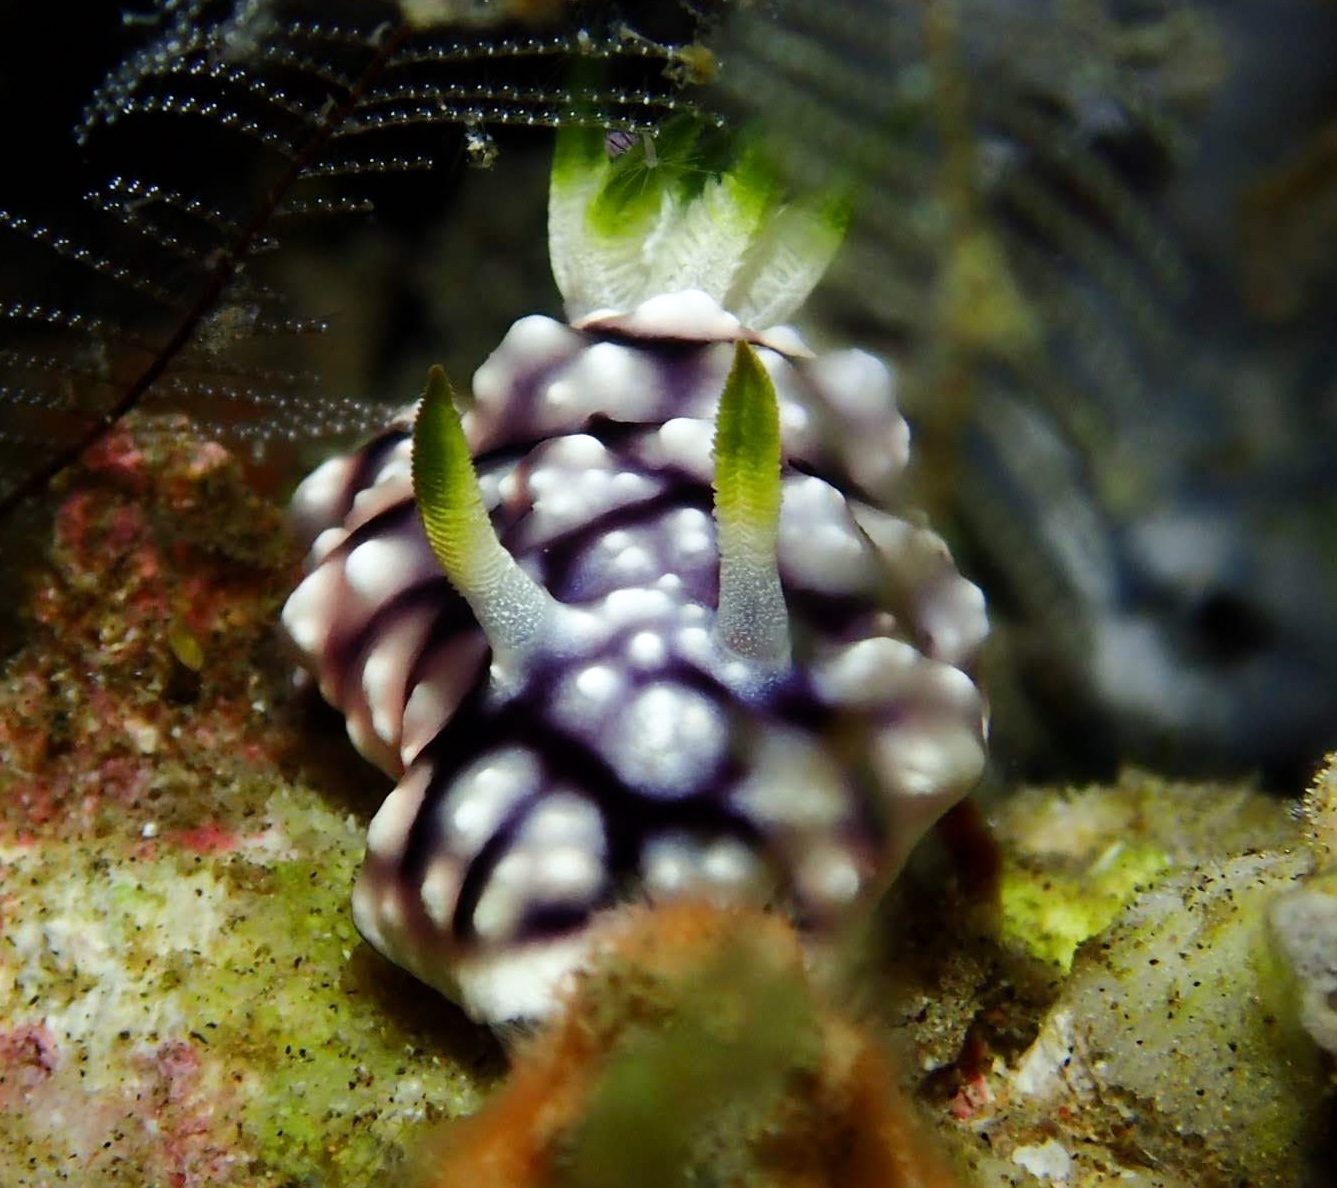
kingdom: Animalia
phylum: Mollusca
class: Gastropoda
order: Nudibranchia
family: Chromodorididae
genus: Goniobranchus
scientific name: Goniobranchus geometricus
